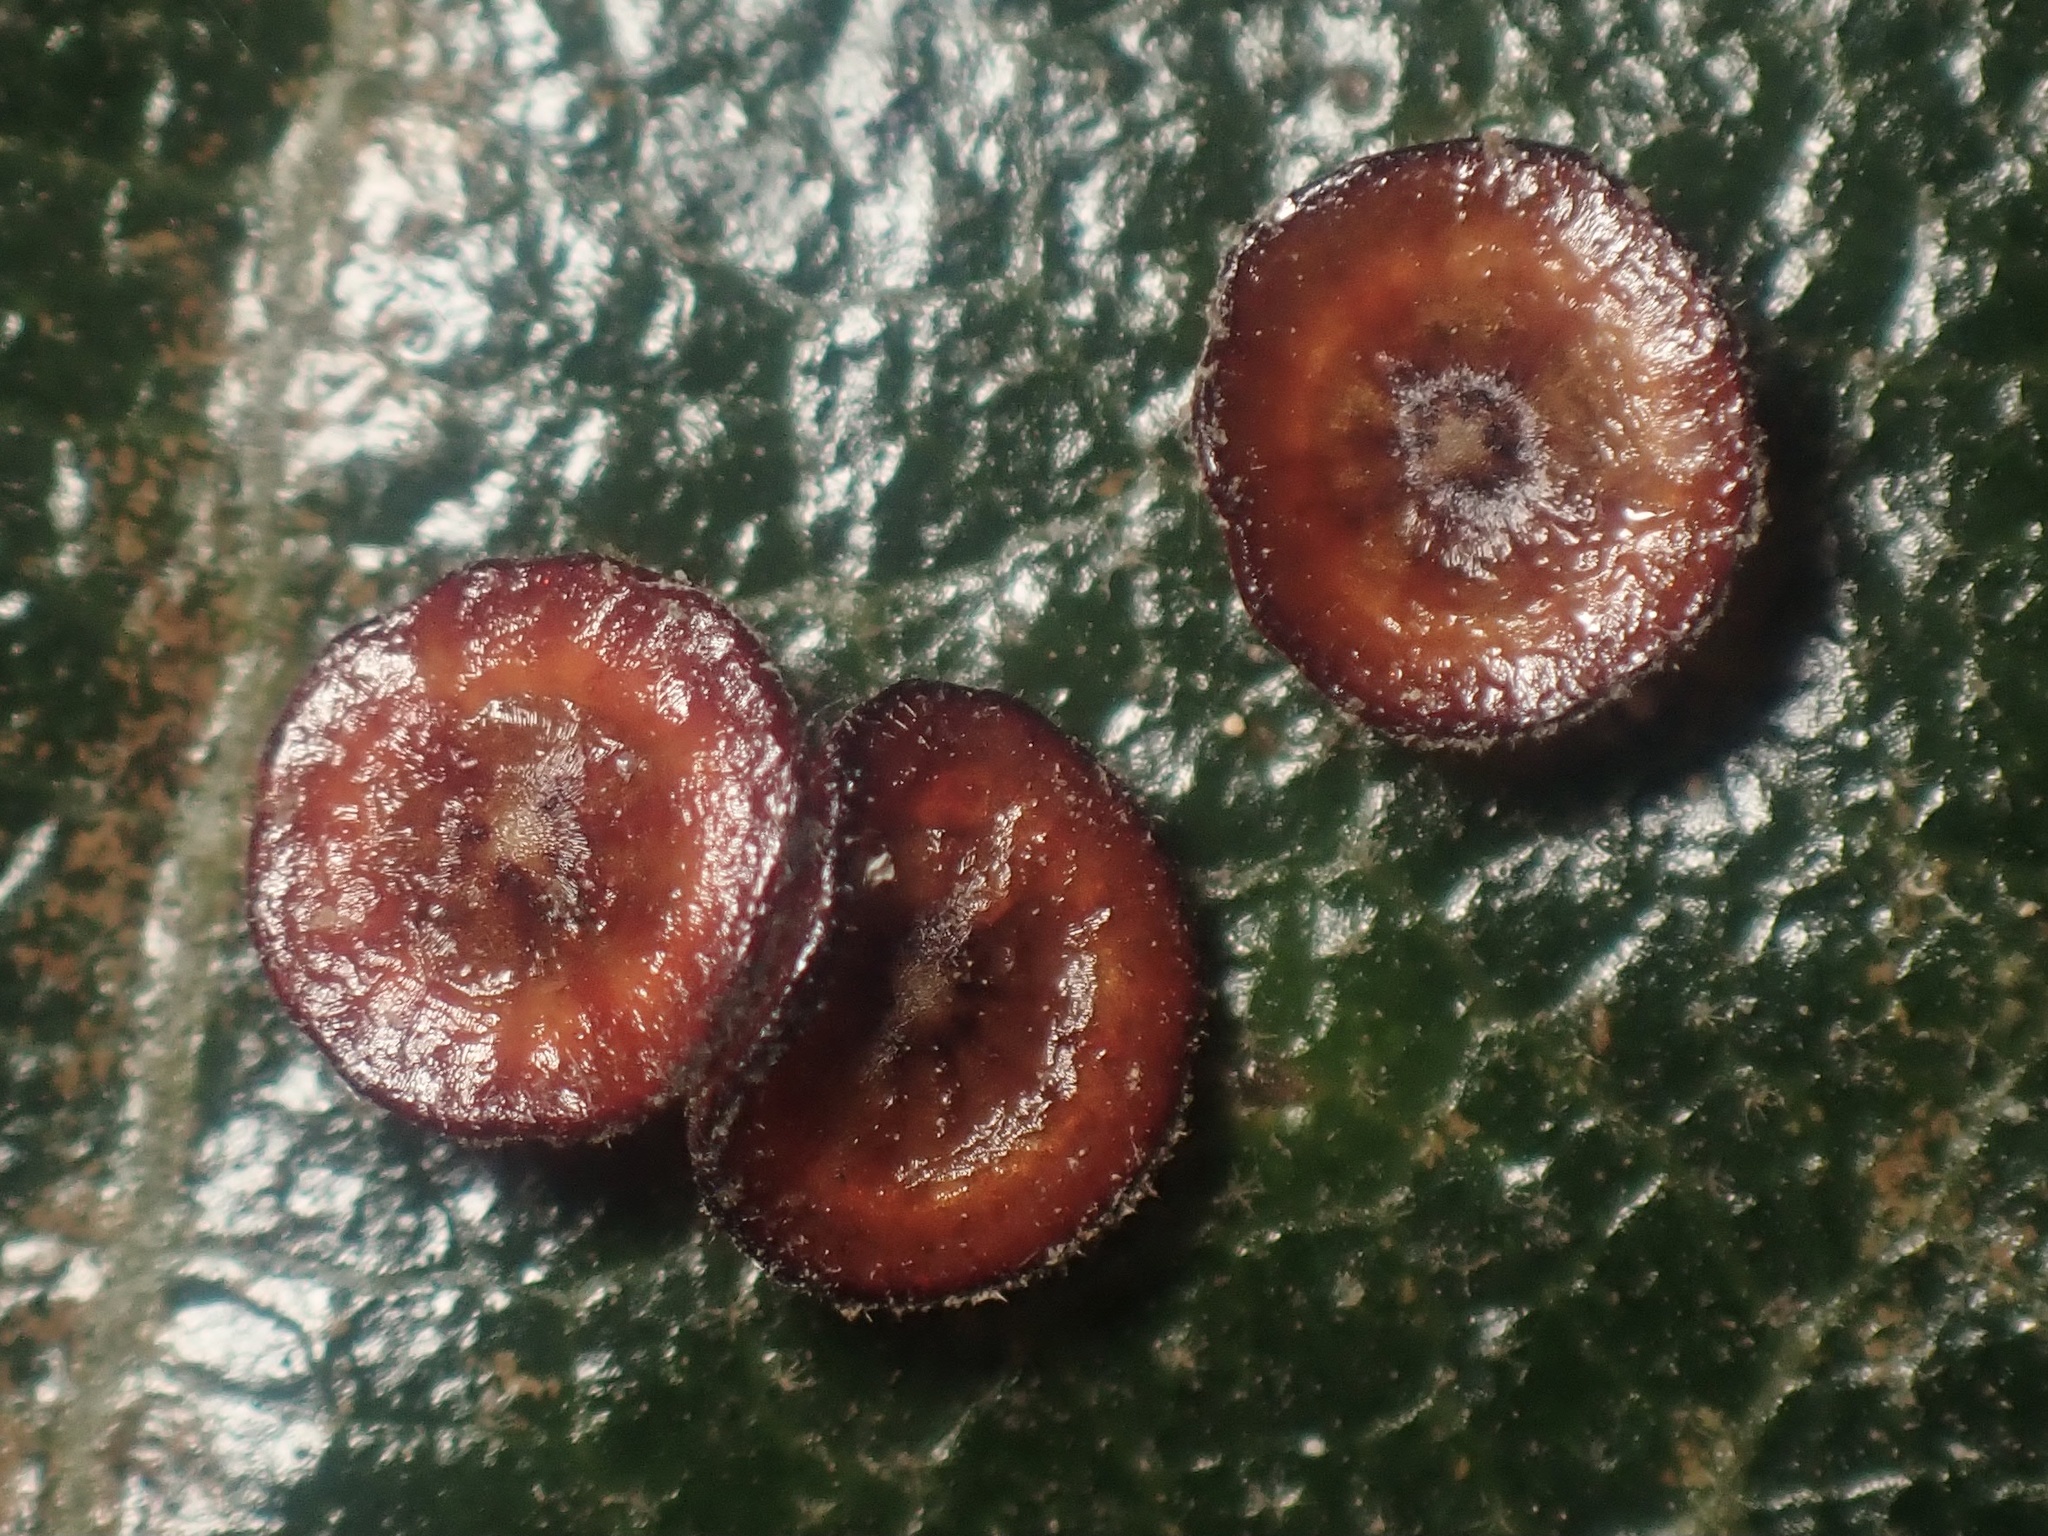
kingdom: Animalia
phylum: Arthropoda
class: Insecta
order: Hymenoptera
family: Cynipidae
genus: Andricus
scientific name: Andricus
